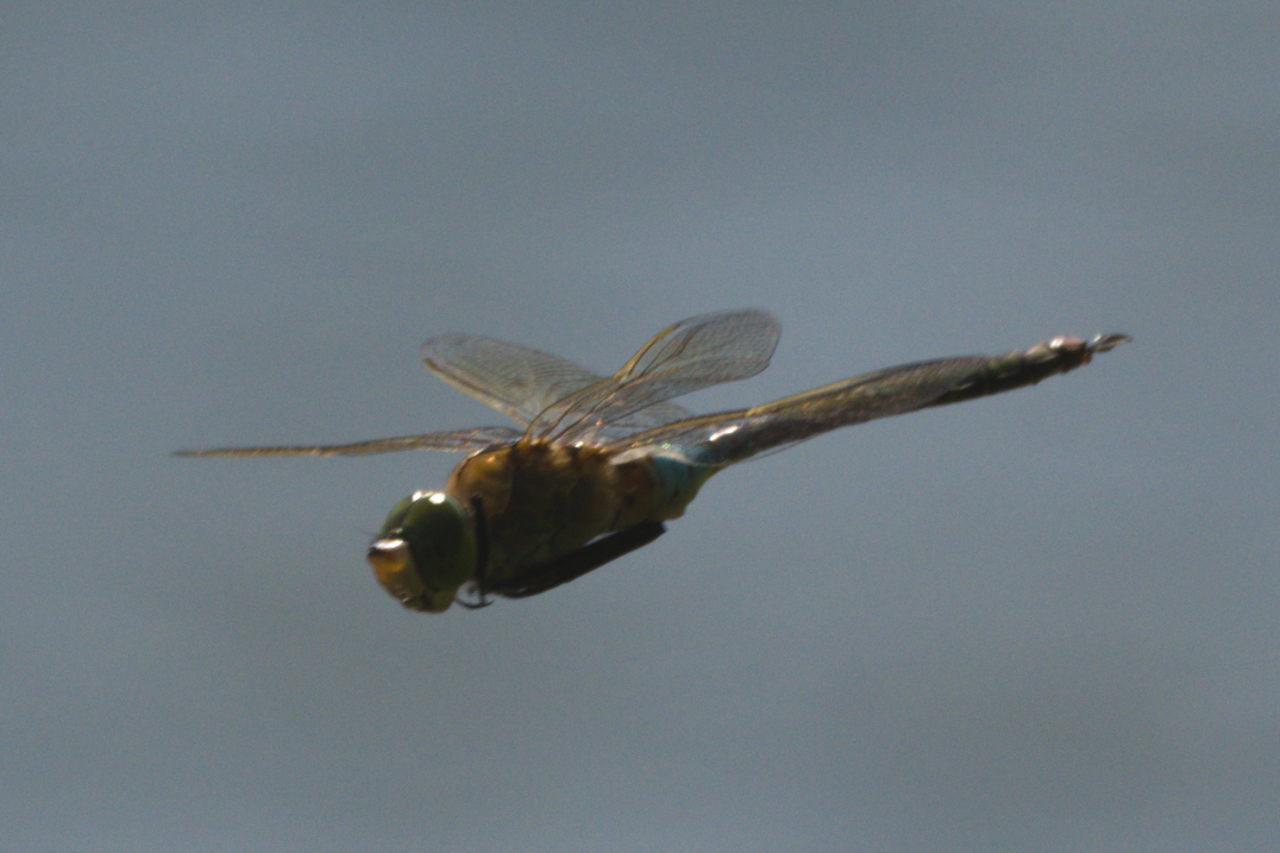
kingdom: Animalia
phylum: Arthropoda
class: Insecta
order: Odonata
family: Aeshnidae
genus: Anax
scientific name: Anax parthenope
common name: Lesser emperor
